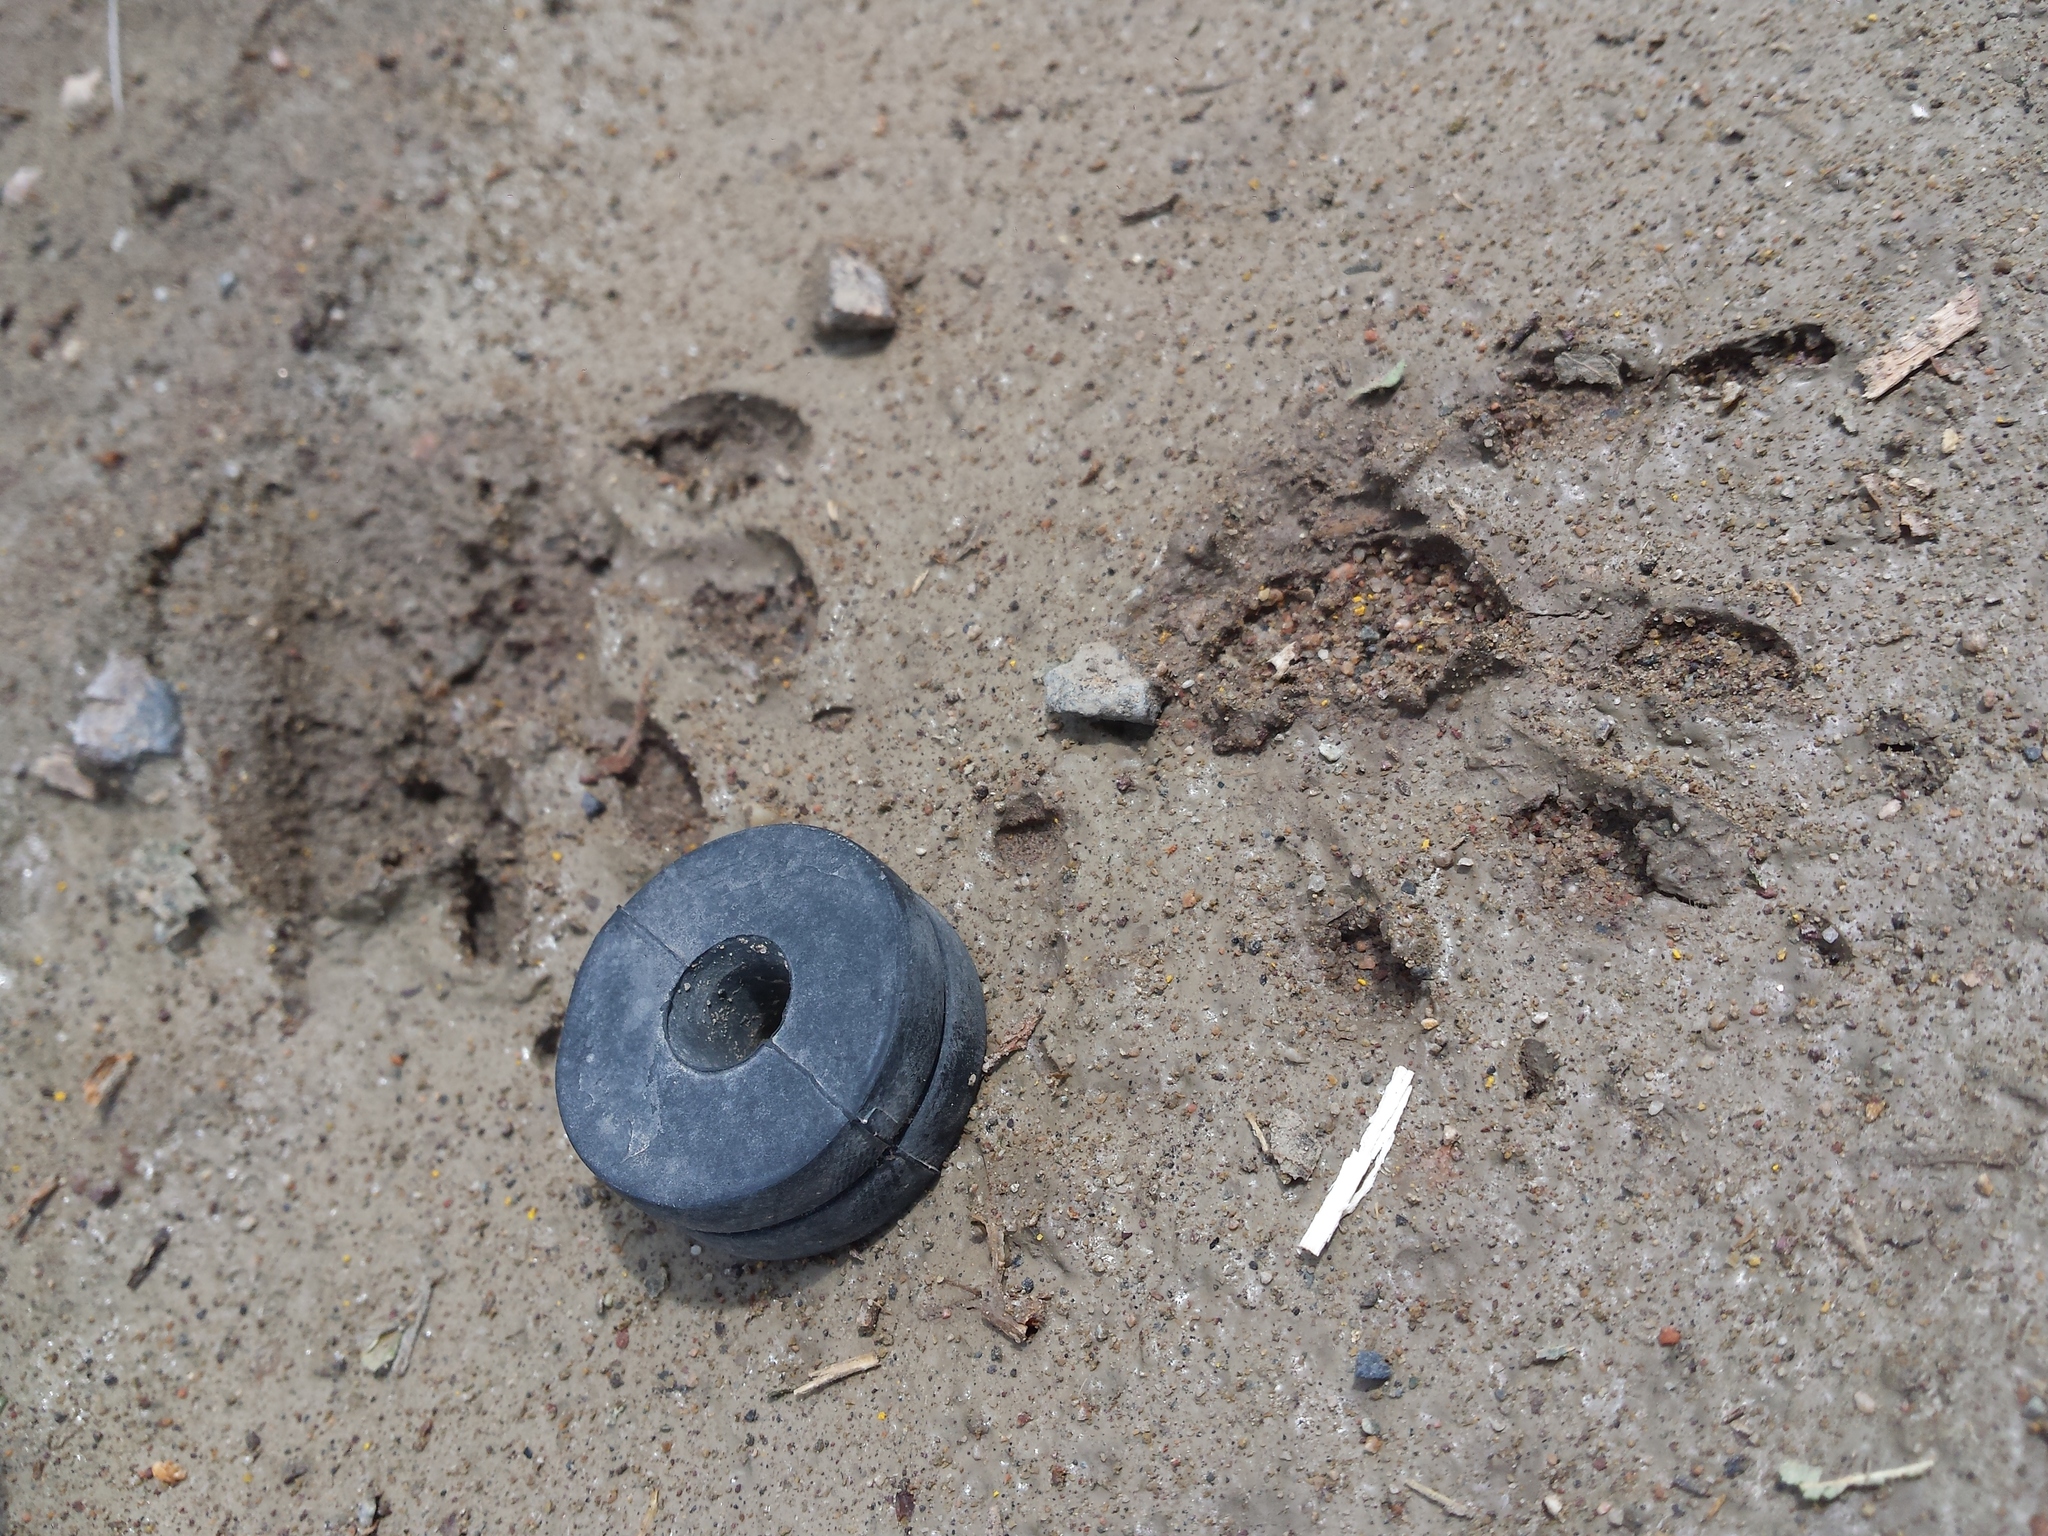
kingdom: Animalia
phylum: Chordata
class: Mammalia
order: Carnivora
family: Procyonidae
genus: Procyon
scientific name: Procyon lotor
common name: Raccoon
